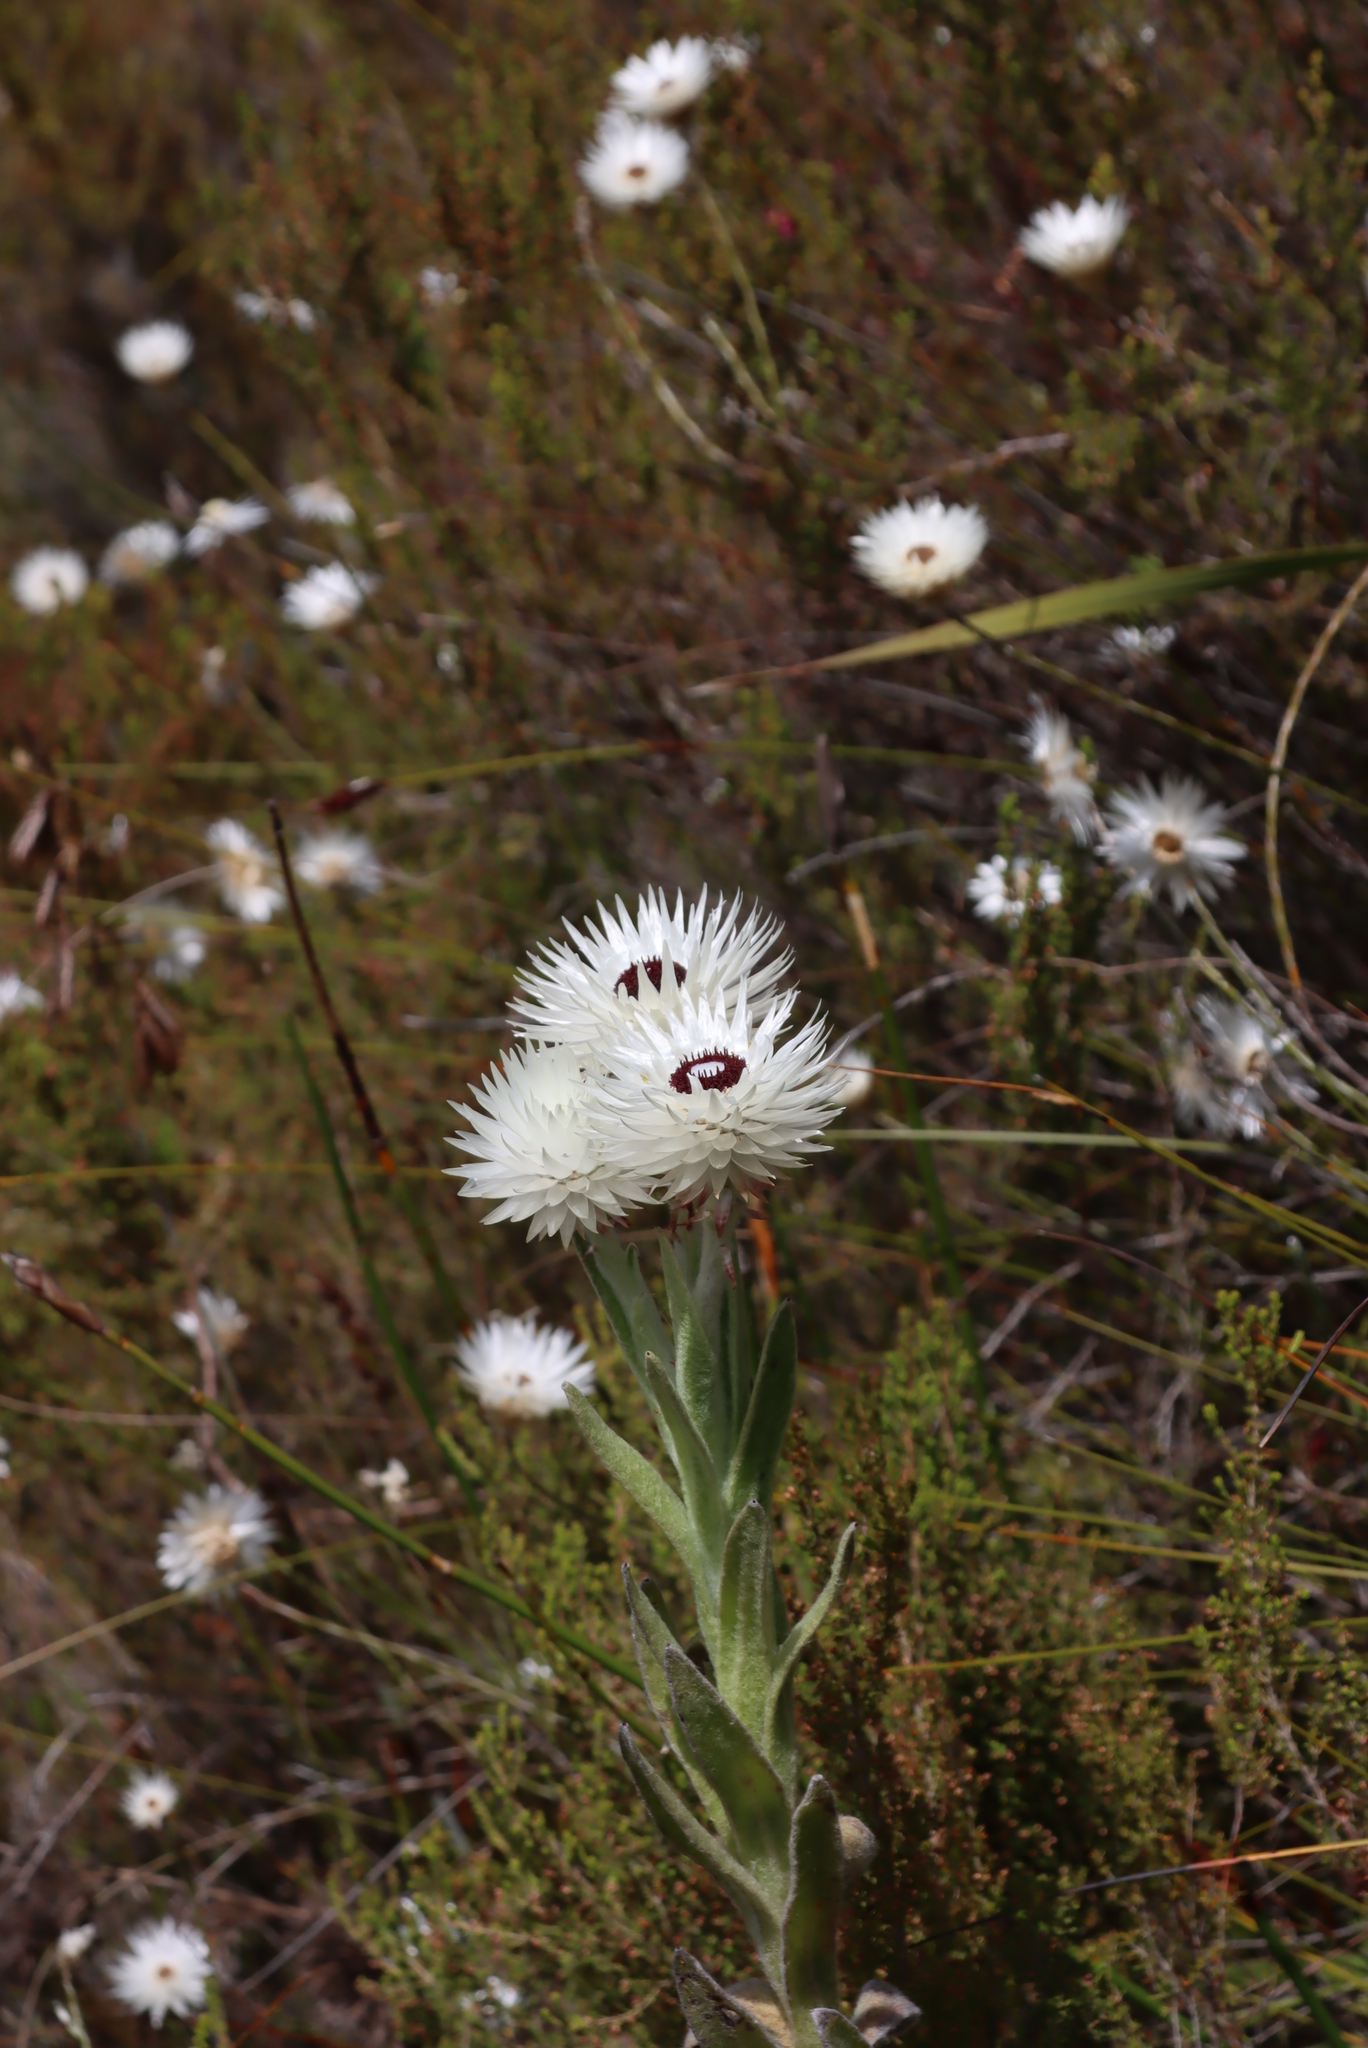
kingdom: Plantae
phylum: Tracheophyta
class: Magnoliopsida
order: Asterales
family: Asteraceae
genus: Syncarpha
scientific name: Syncarpha vestita
